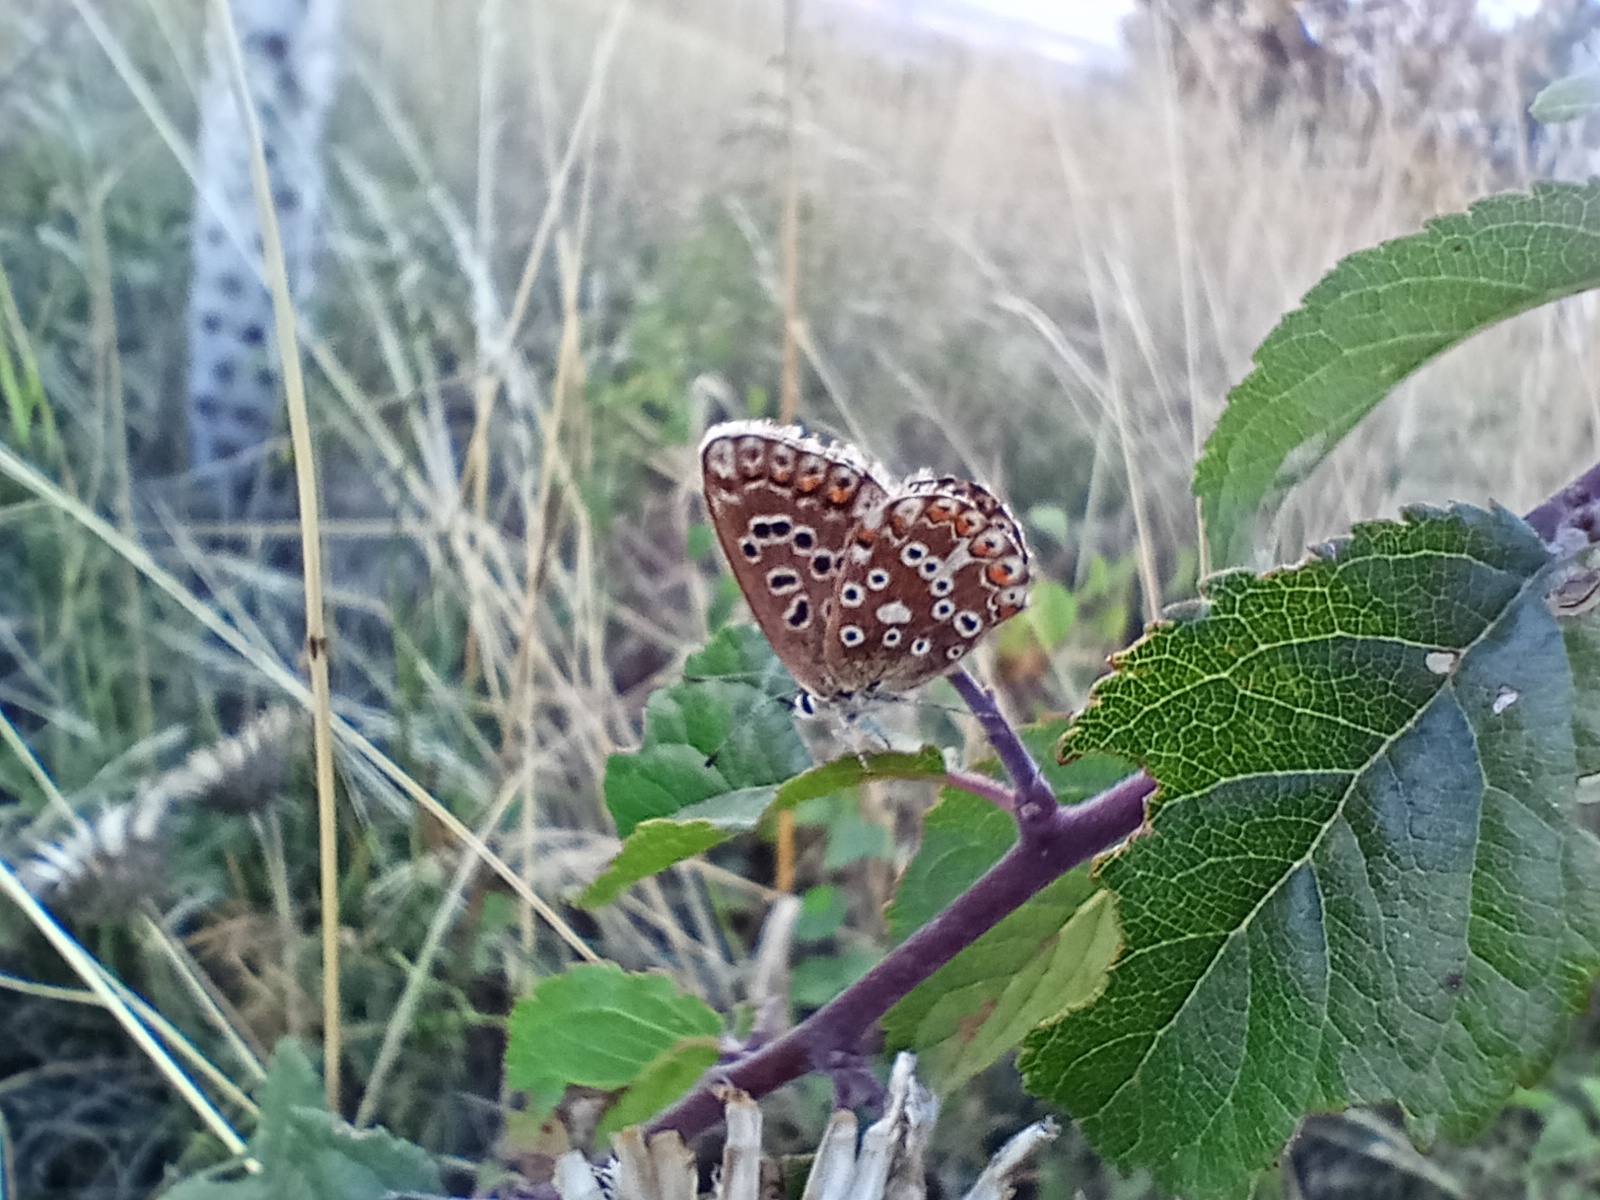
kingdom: Animalia
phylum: Arthropoda
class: Insecta
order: Lepidoptera
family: Lycaenidae
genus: Lysandra
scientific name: Lysandra coridon
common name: Chalkhill blue
